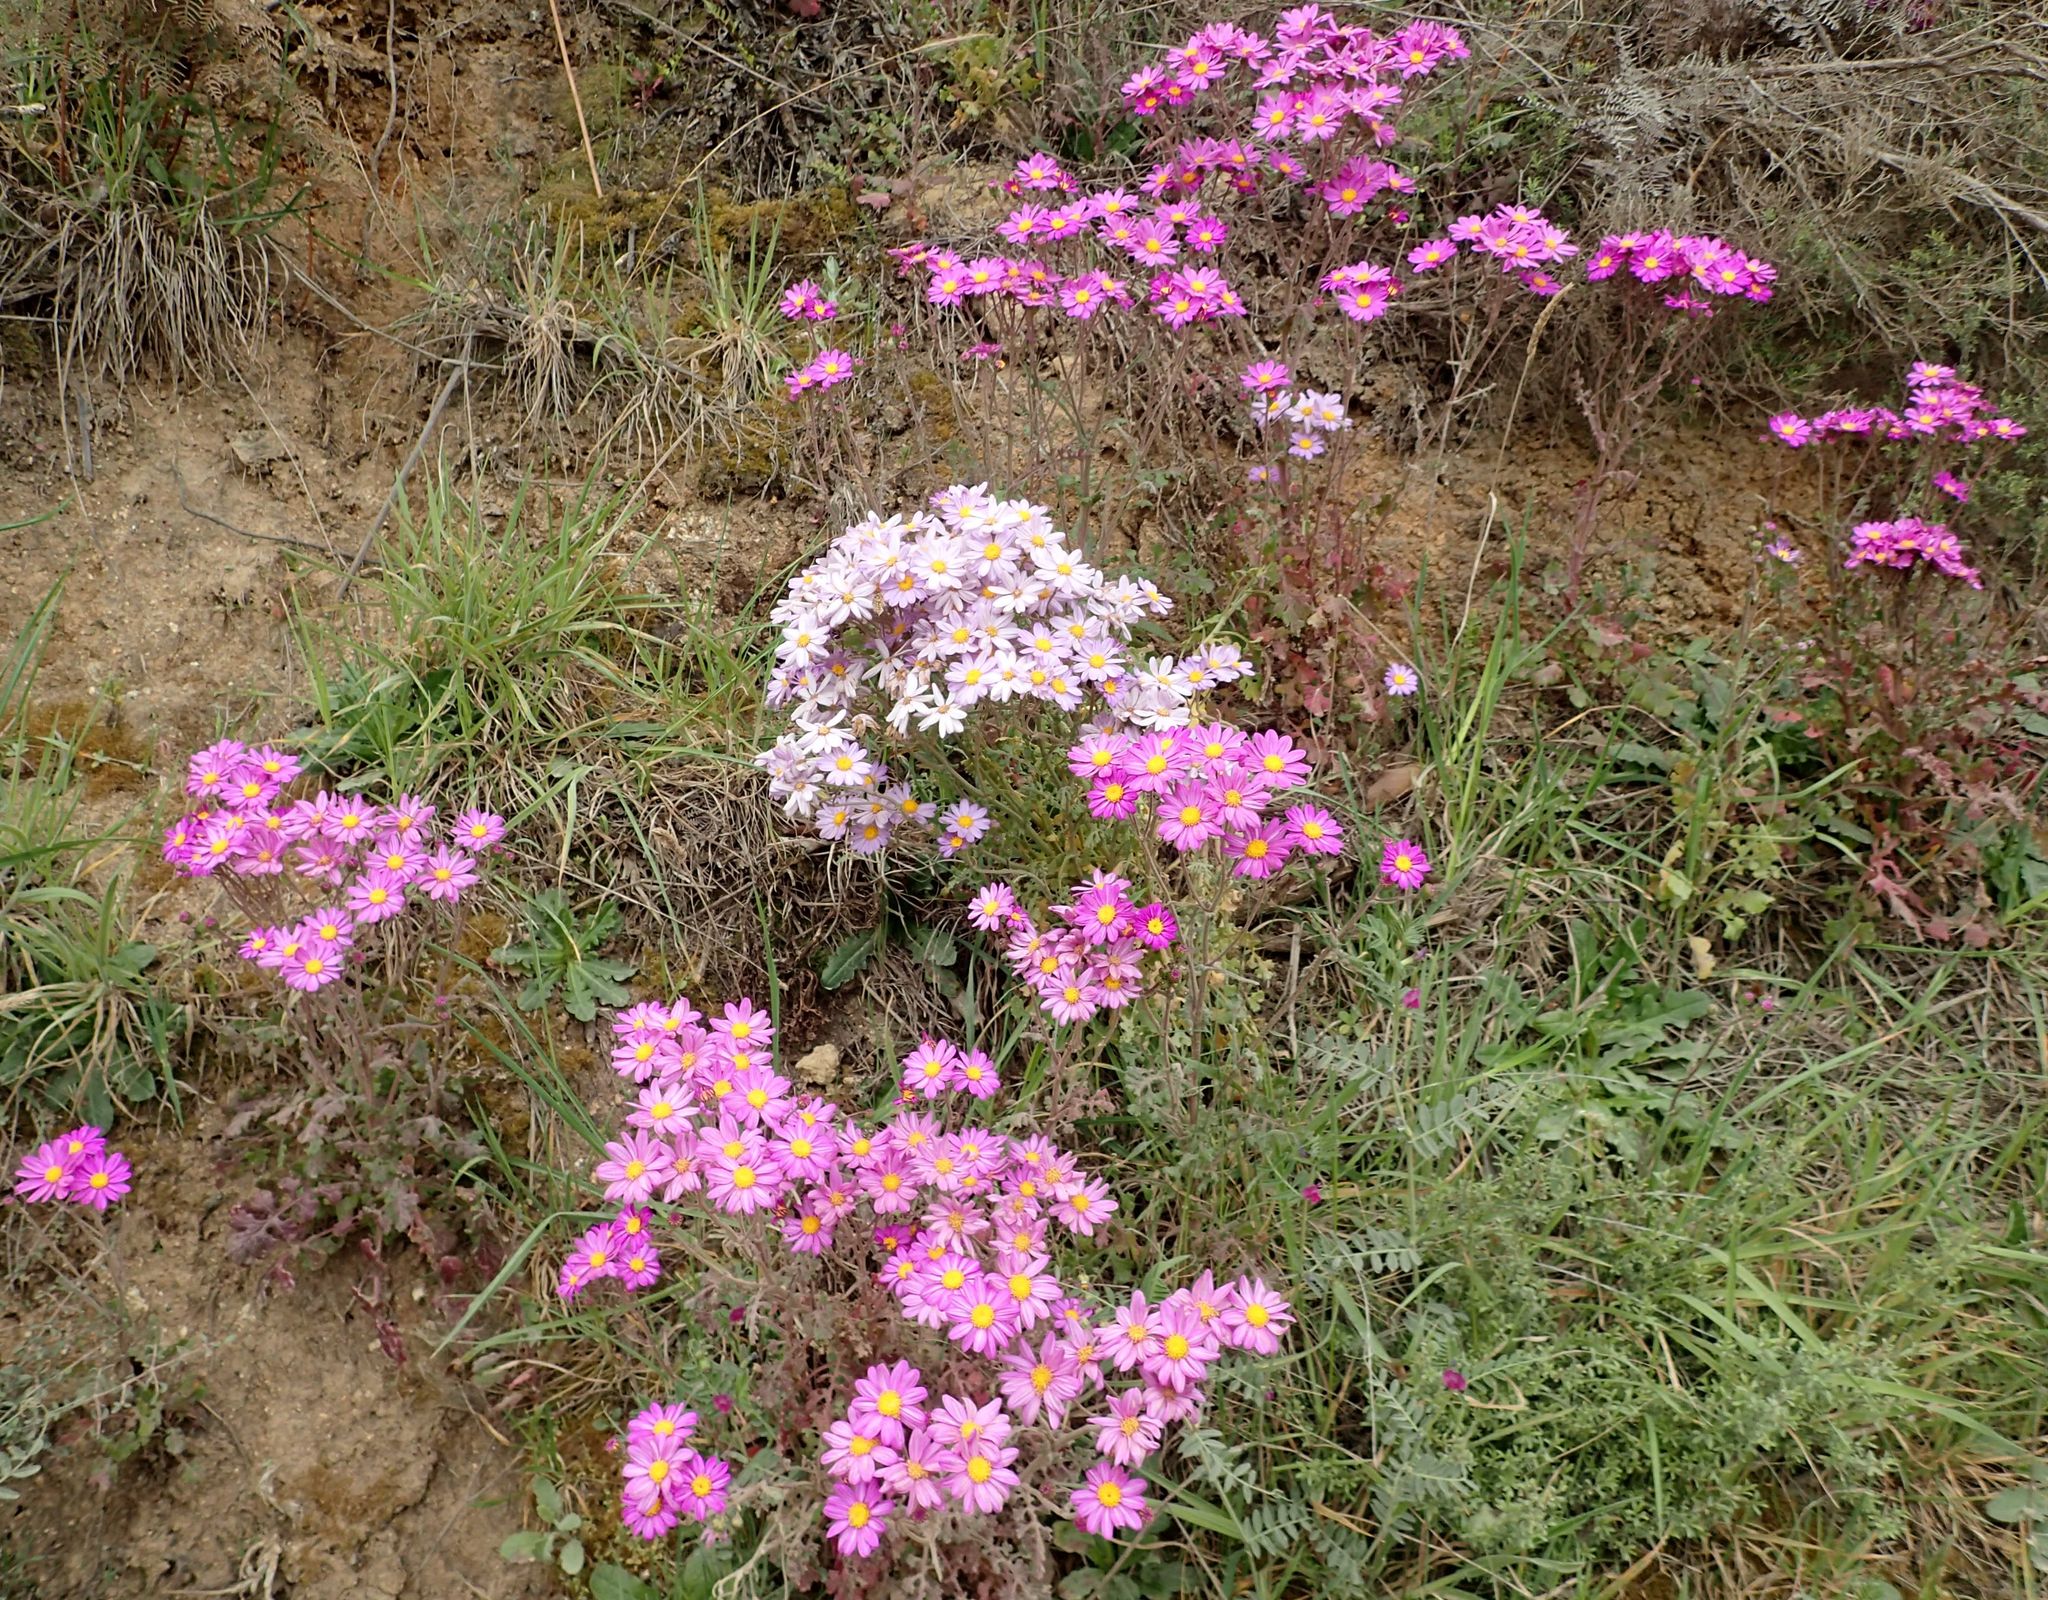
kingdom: Plantae
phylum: Tracheophyta
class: Magnoliopsida
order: Asterales
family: Asteraceae
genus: Senecio
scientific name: Senecio elegans
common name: Purple groundsel
